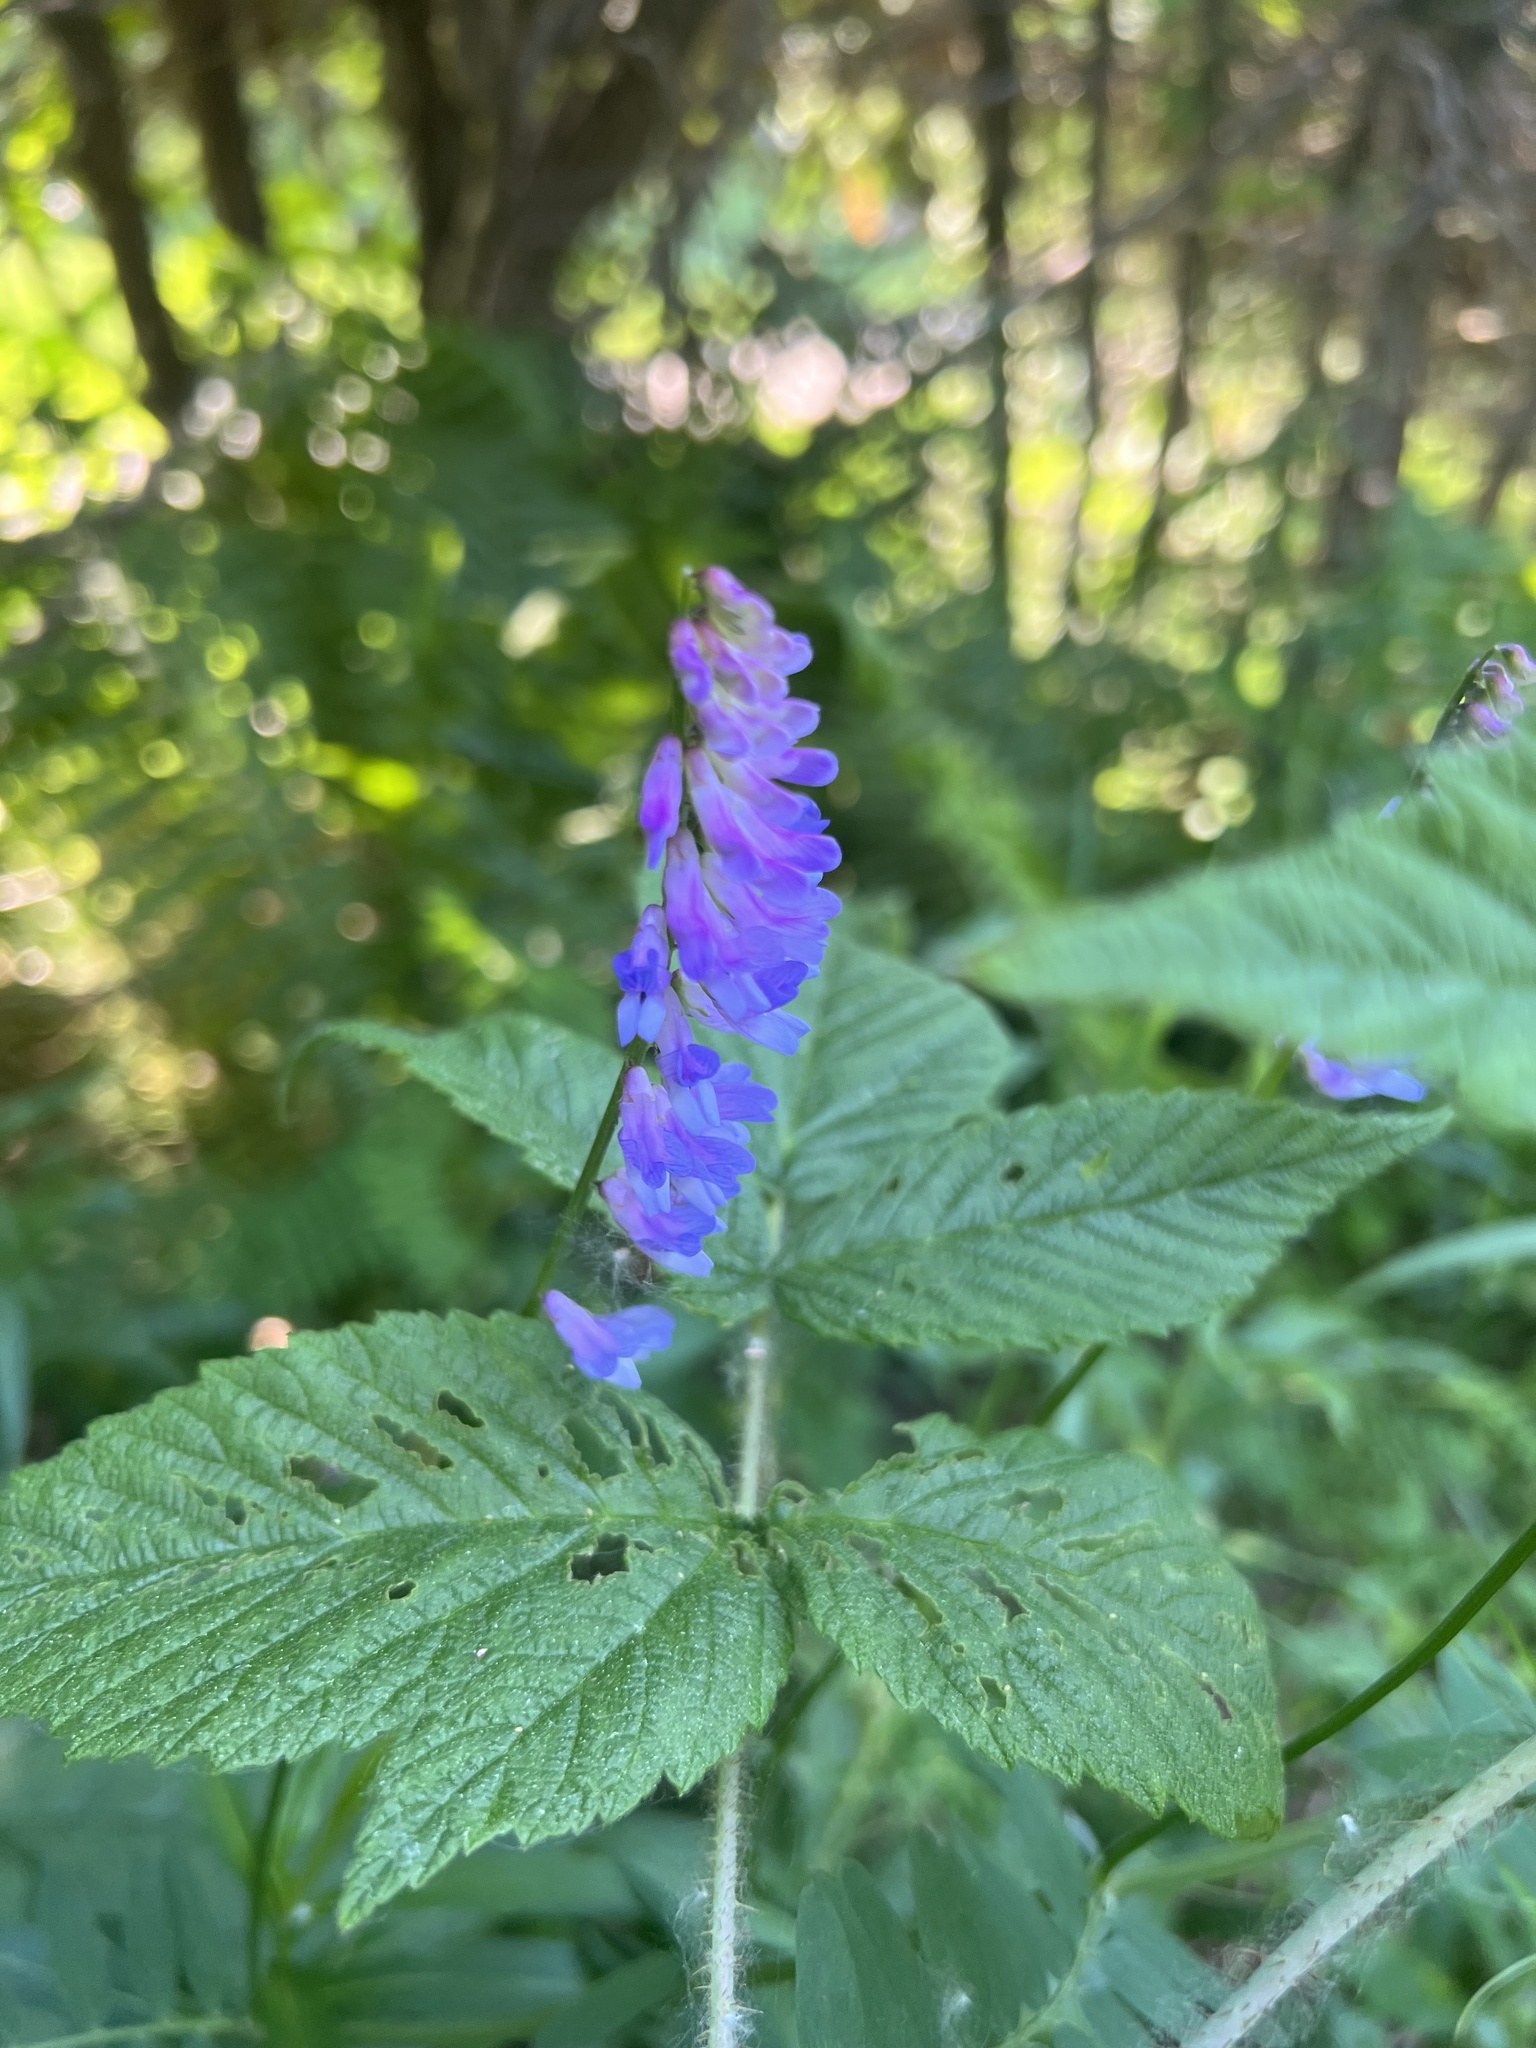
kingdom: Plantae
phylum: Tracheophyta
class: Magnoliopsida
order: Fabales
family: Fabaceae
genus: Vicia
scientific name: Vicia cracca
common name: Bird vetch
